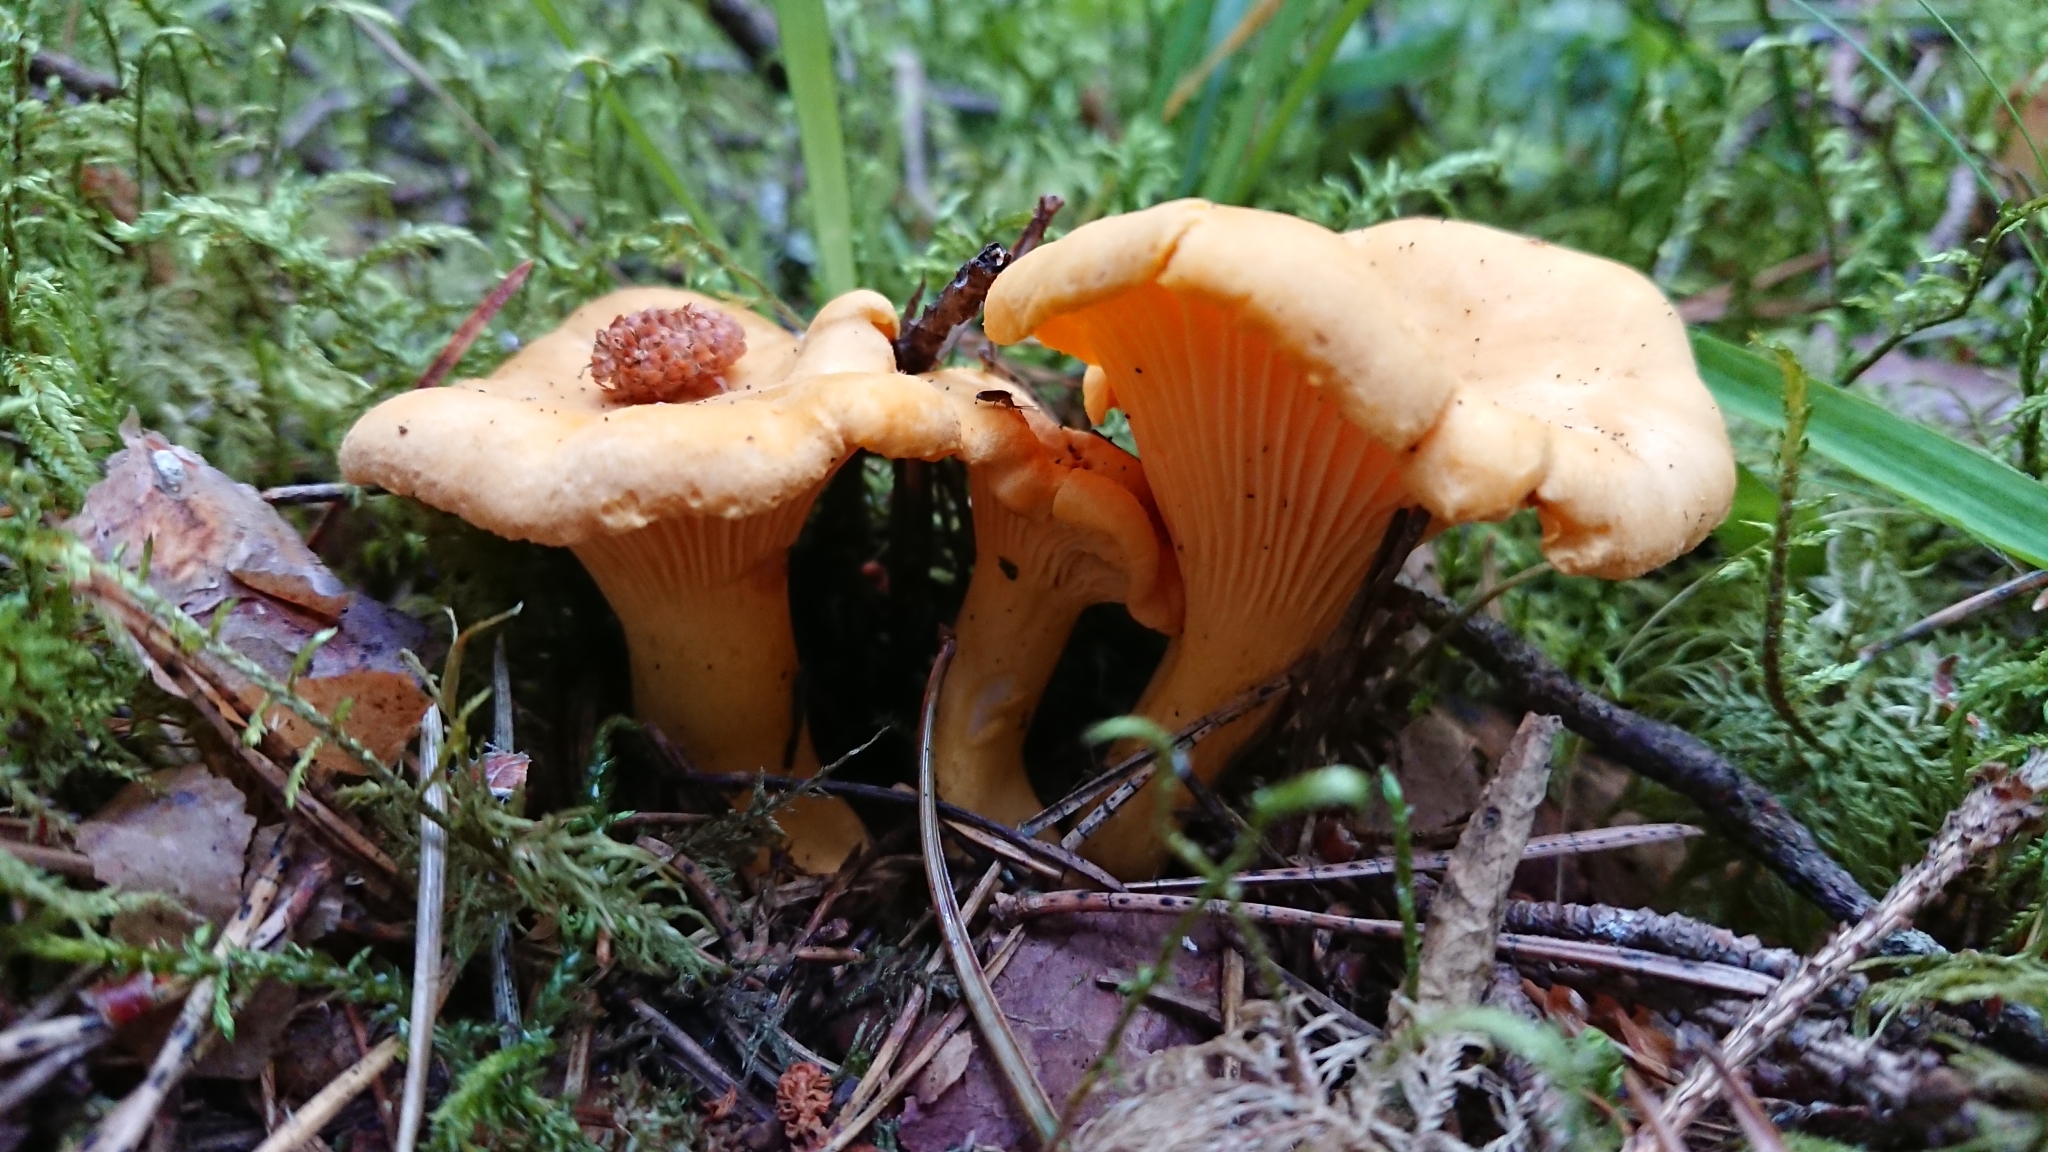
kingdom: Fungi
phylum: Basidiomycota
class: Agaricomycetes
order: Cantharellales
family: Hydnaceae
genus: Cantharellus
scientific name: Cantharellus cibarius
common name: Chanterelle
